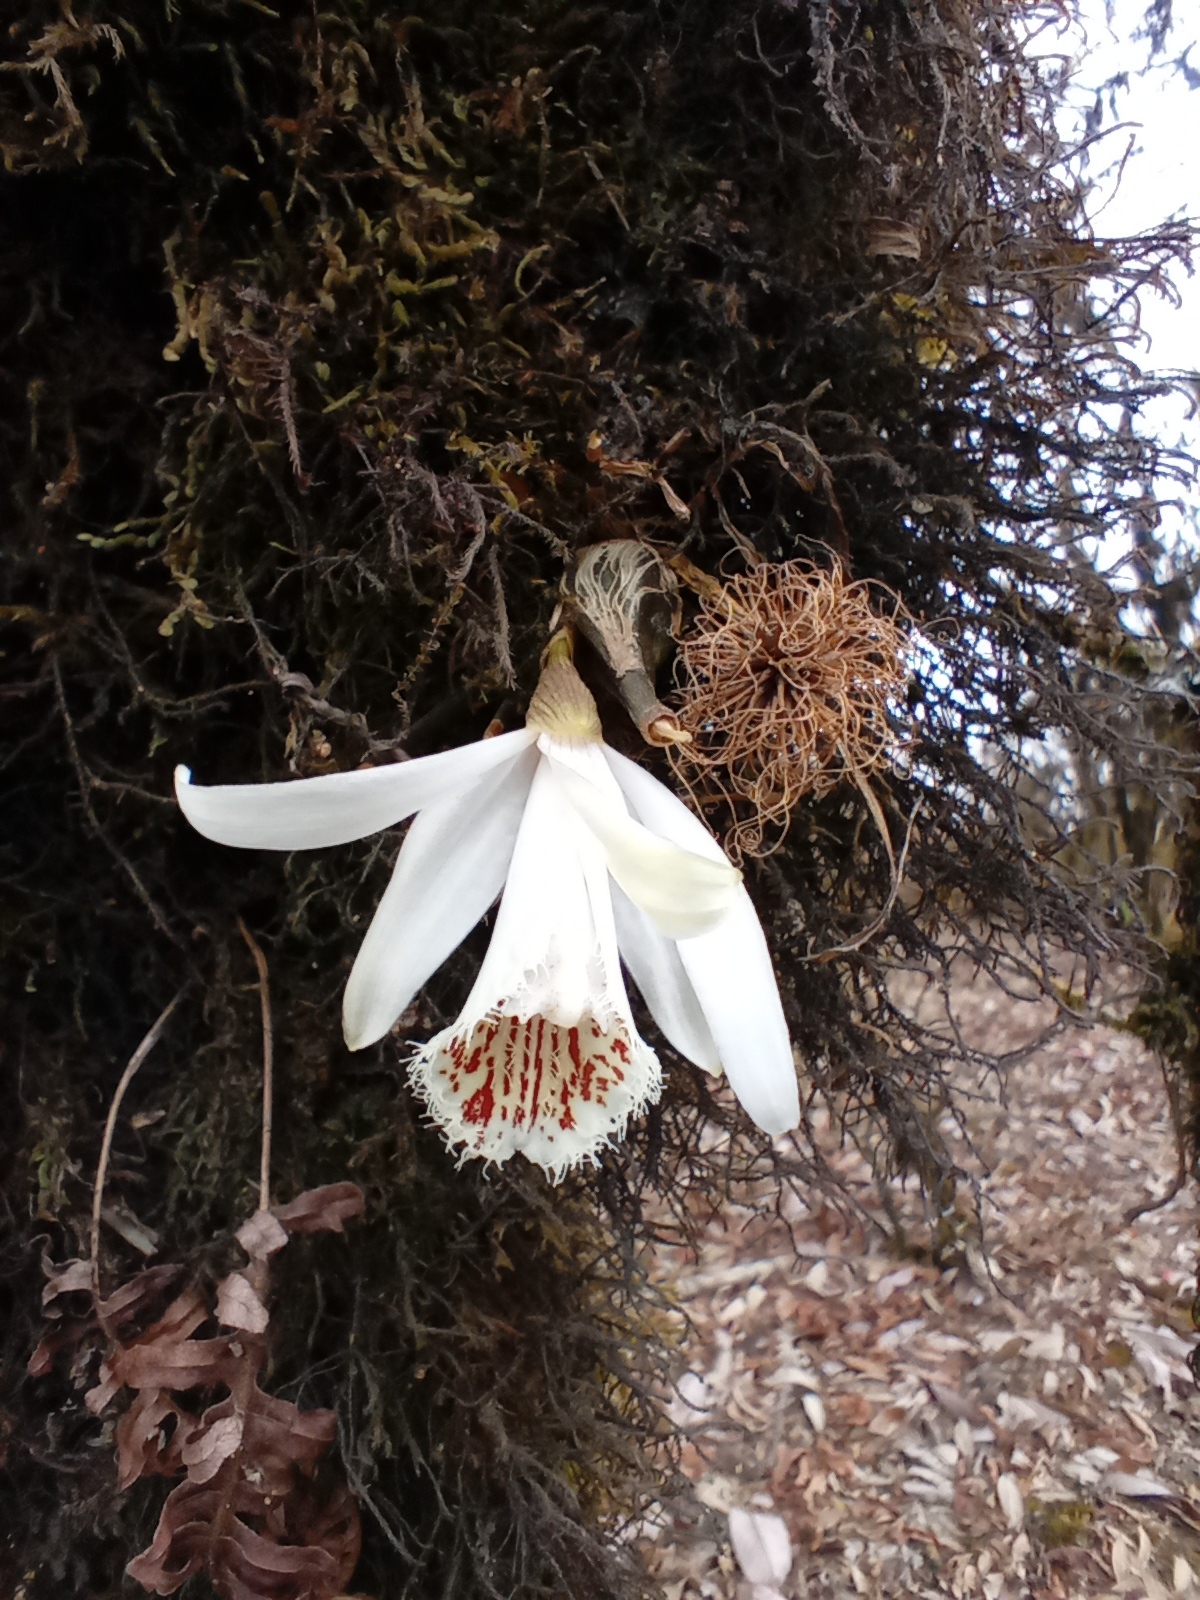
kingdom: Plantae
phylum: Tracheophyta
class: Liliopsida
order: Asparagales
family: Orchidaceae
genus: Pleione
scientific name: Pleione humilis
